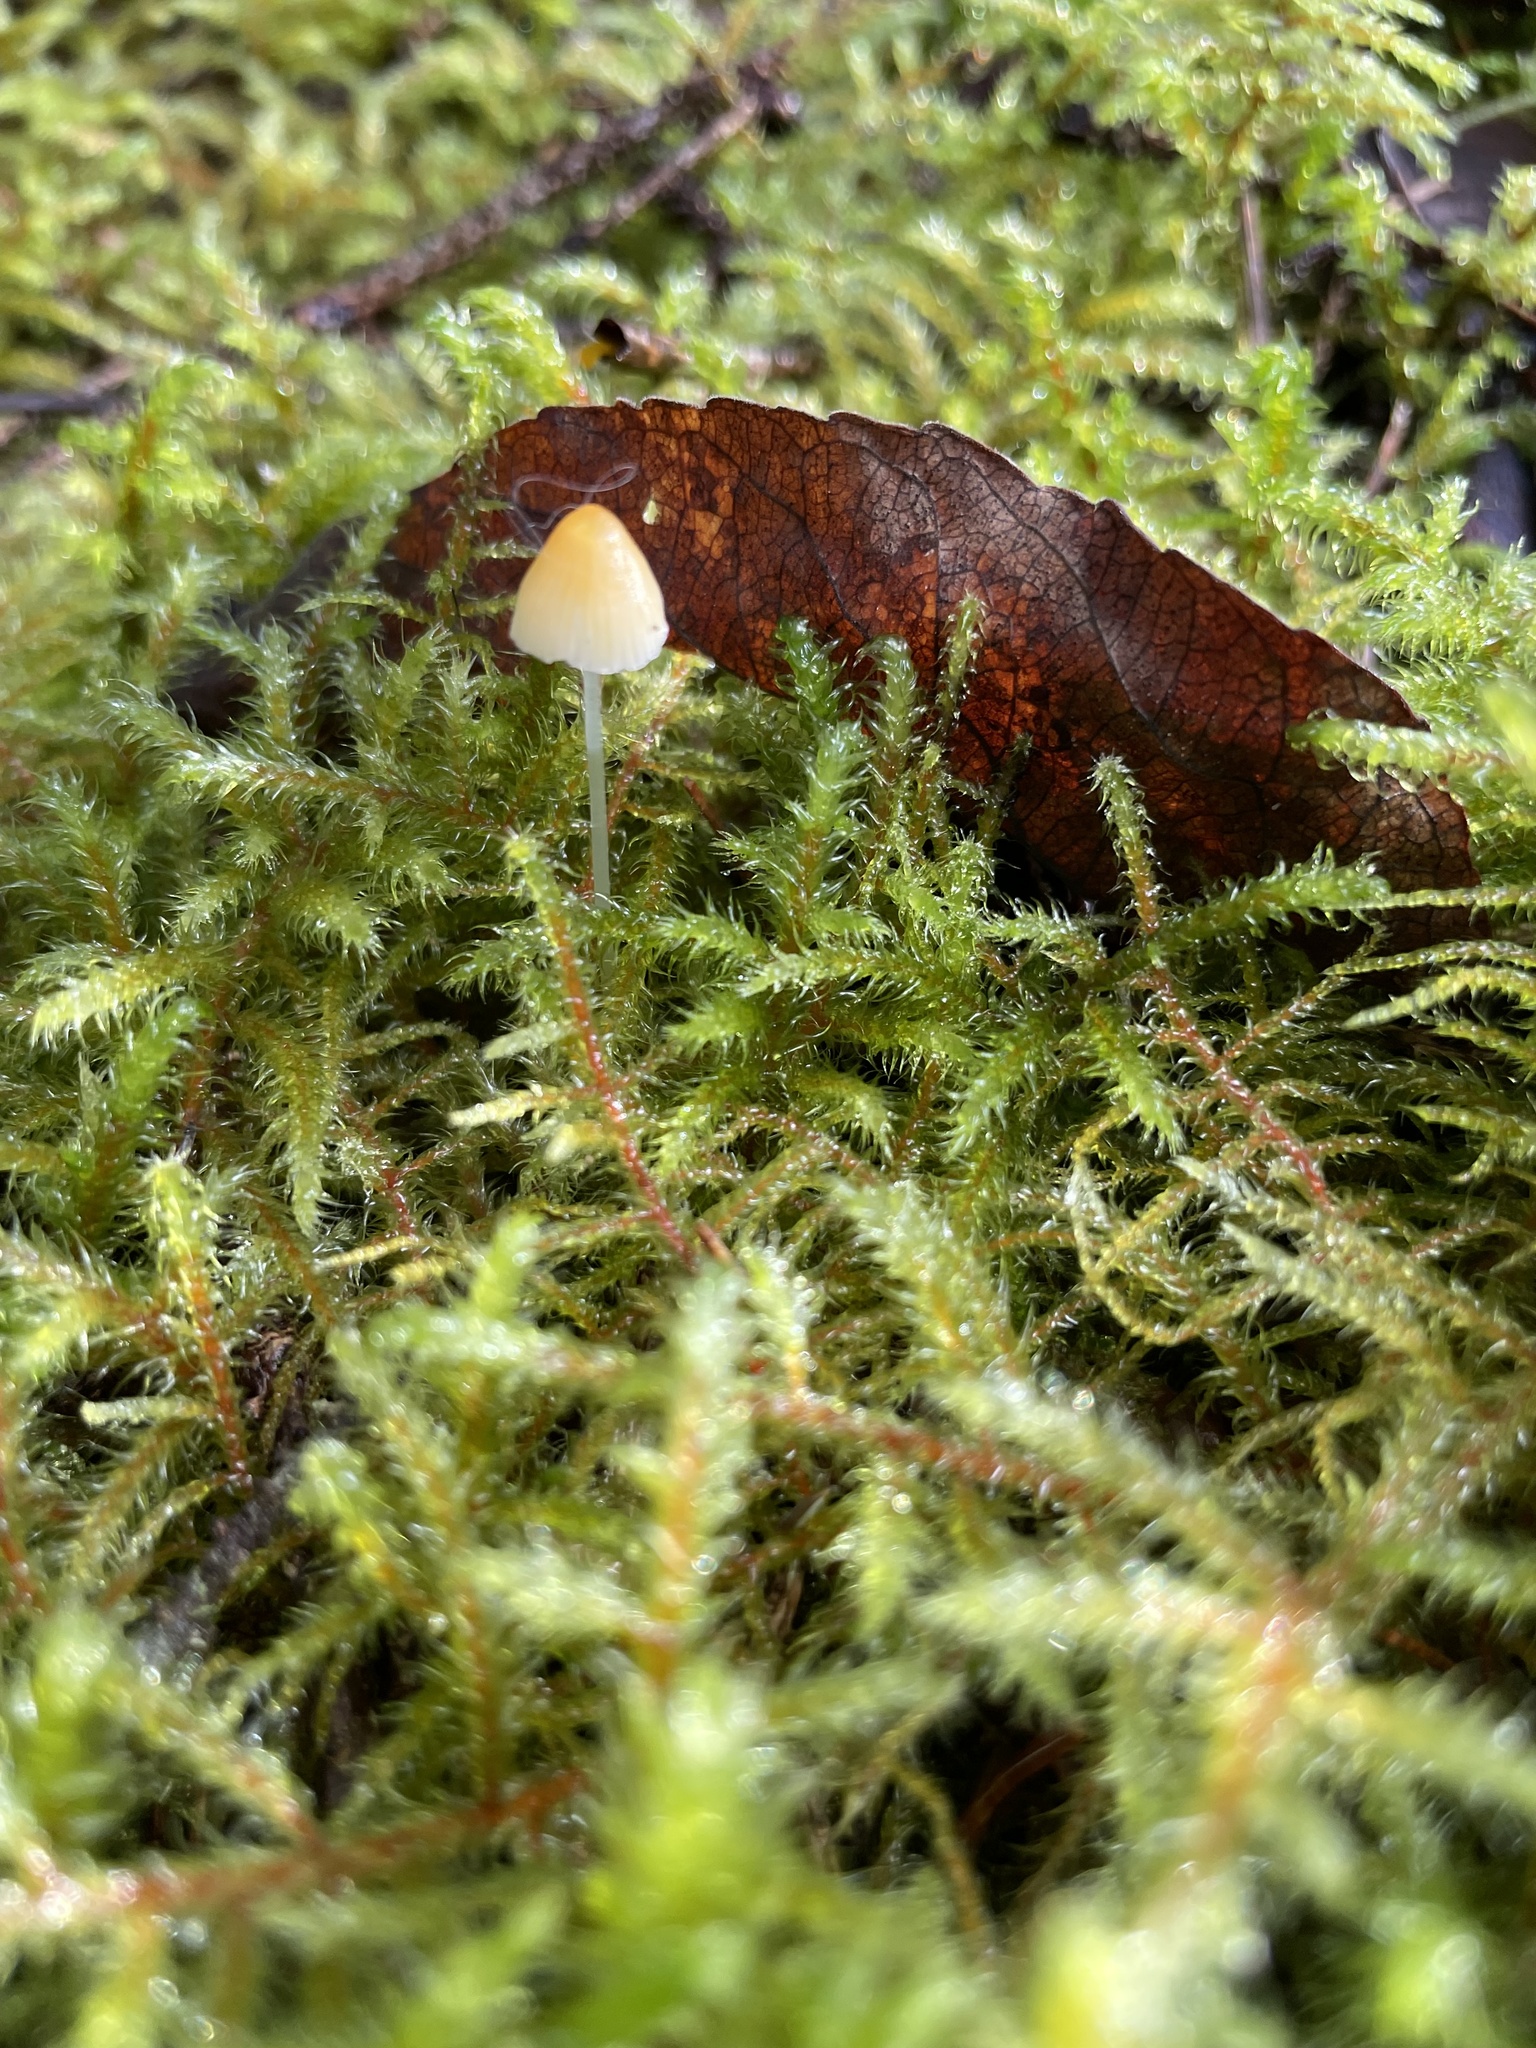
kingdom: Fungi
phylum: Basidiomycota
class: Agaricomycetes
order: Agaricales
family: Mycenaceae
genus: Atheniella
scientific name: Atheniella aurantiidisca
